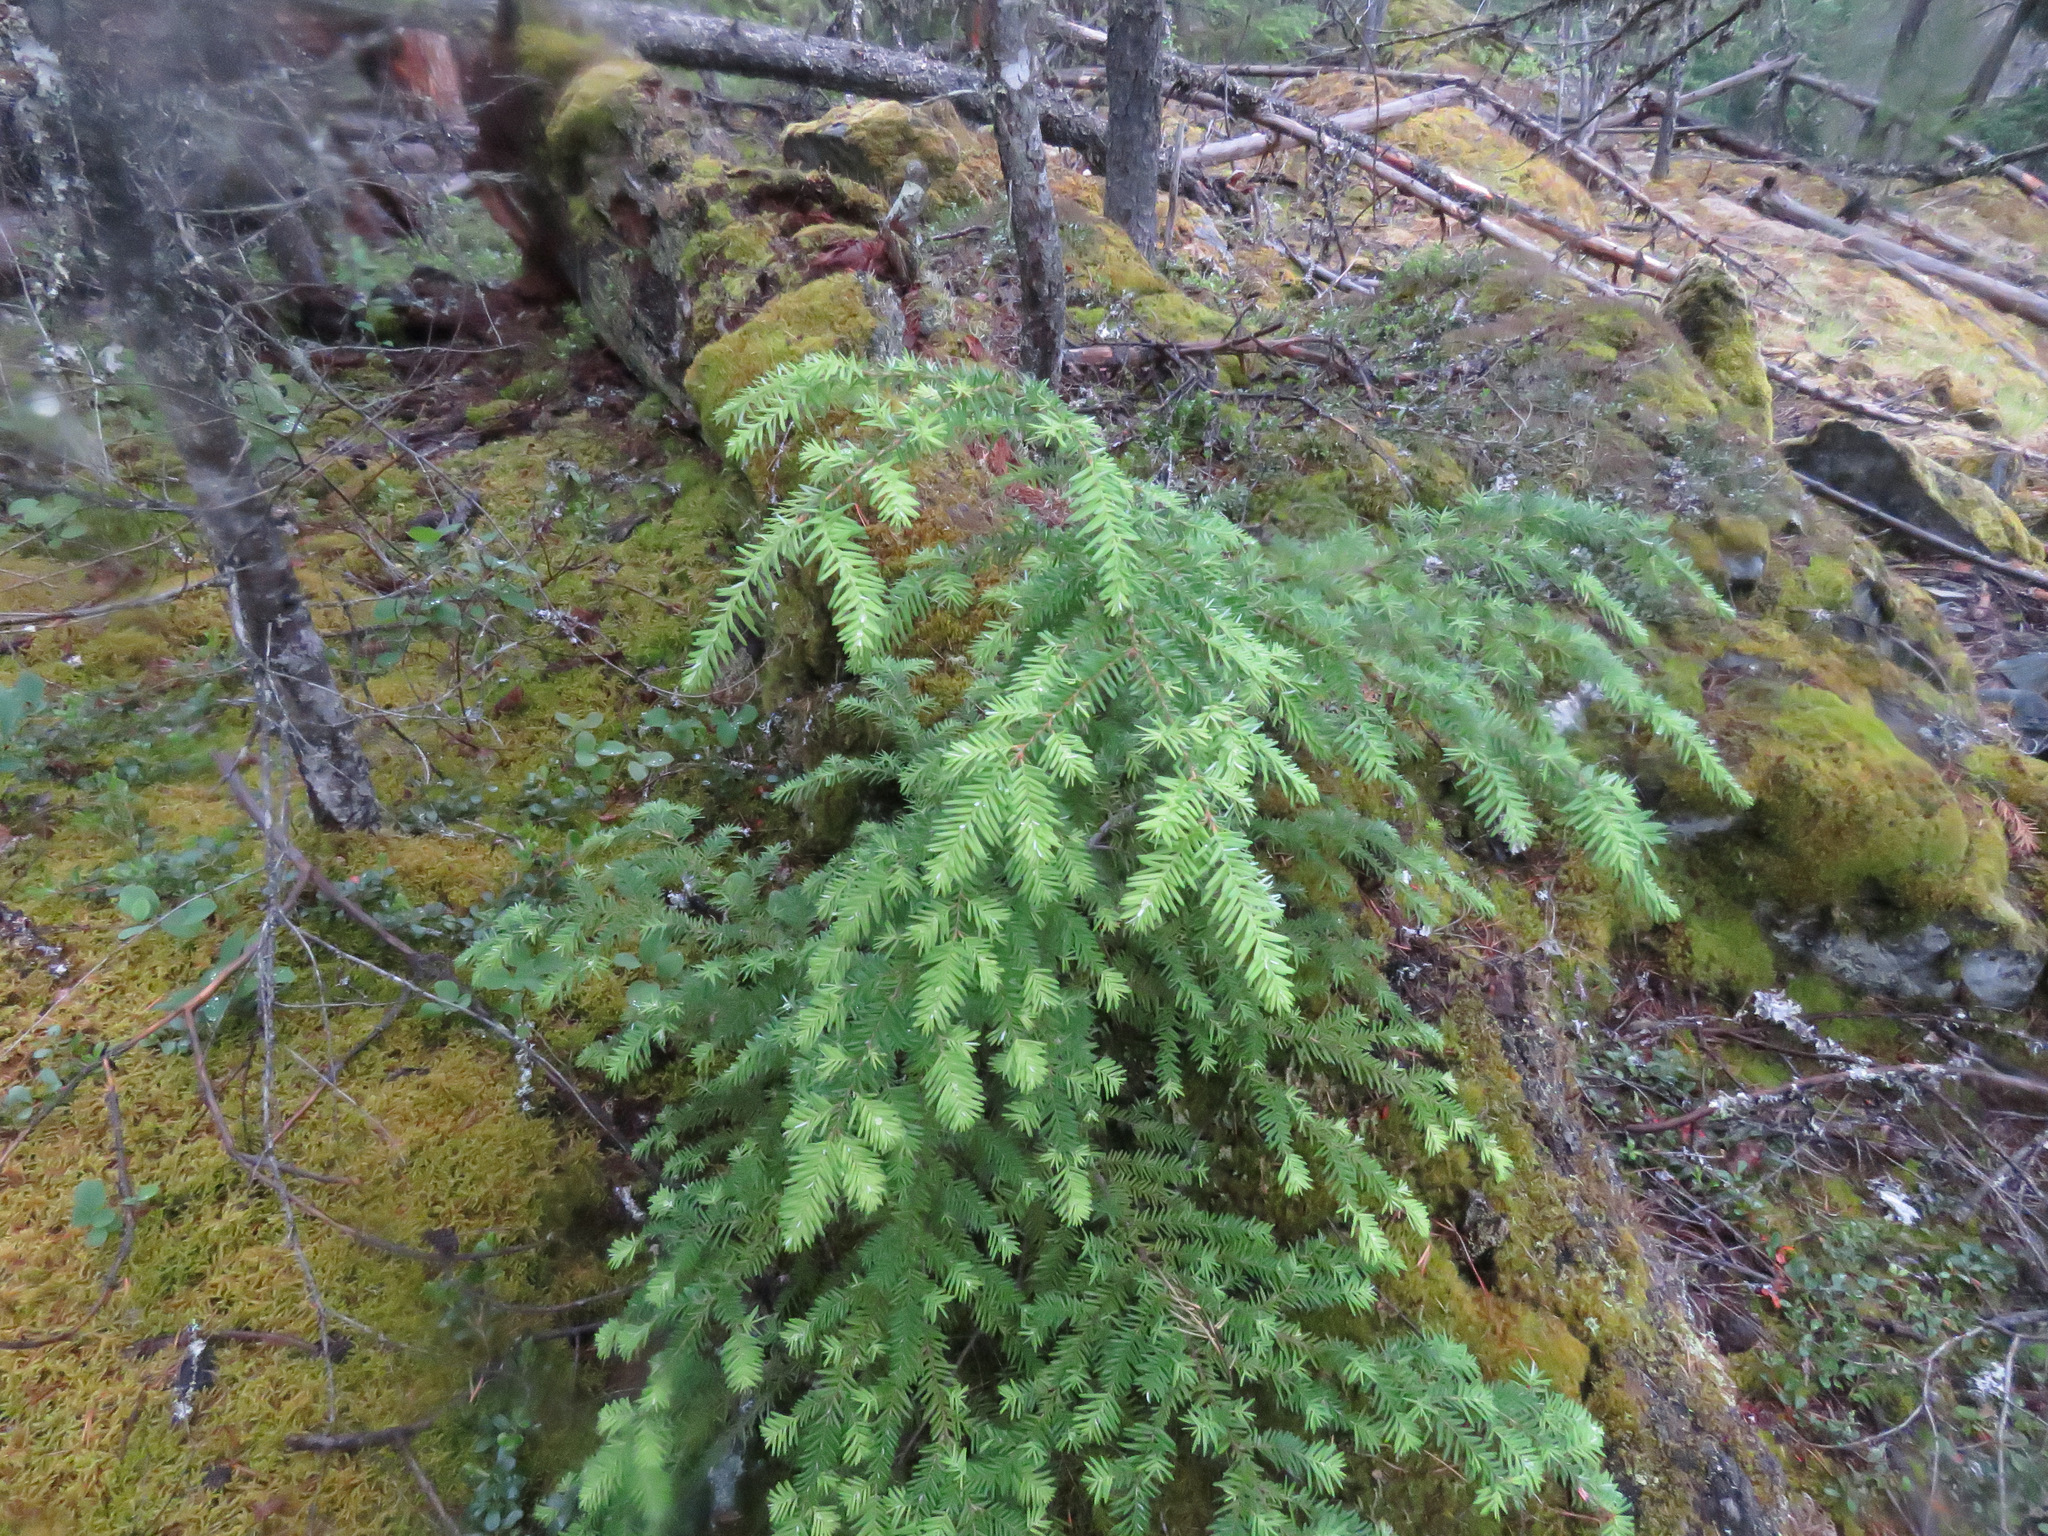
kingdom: Plantae
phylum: Tracheophyta
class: Pinopsida
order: Pinales
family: Pinaceae
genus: Tsuga
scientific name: Tsuga heterophylla
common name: Western hemlock
